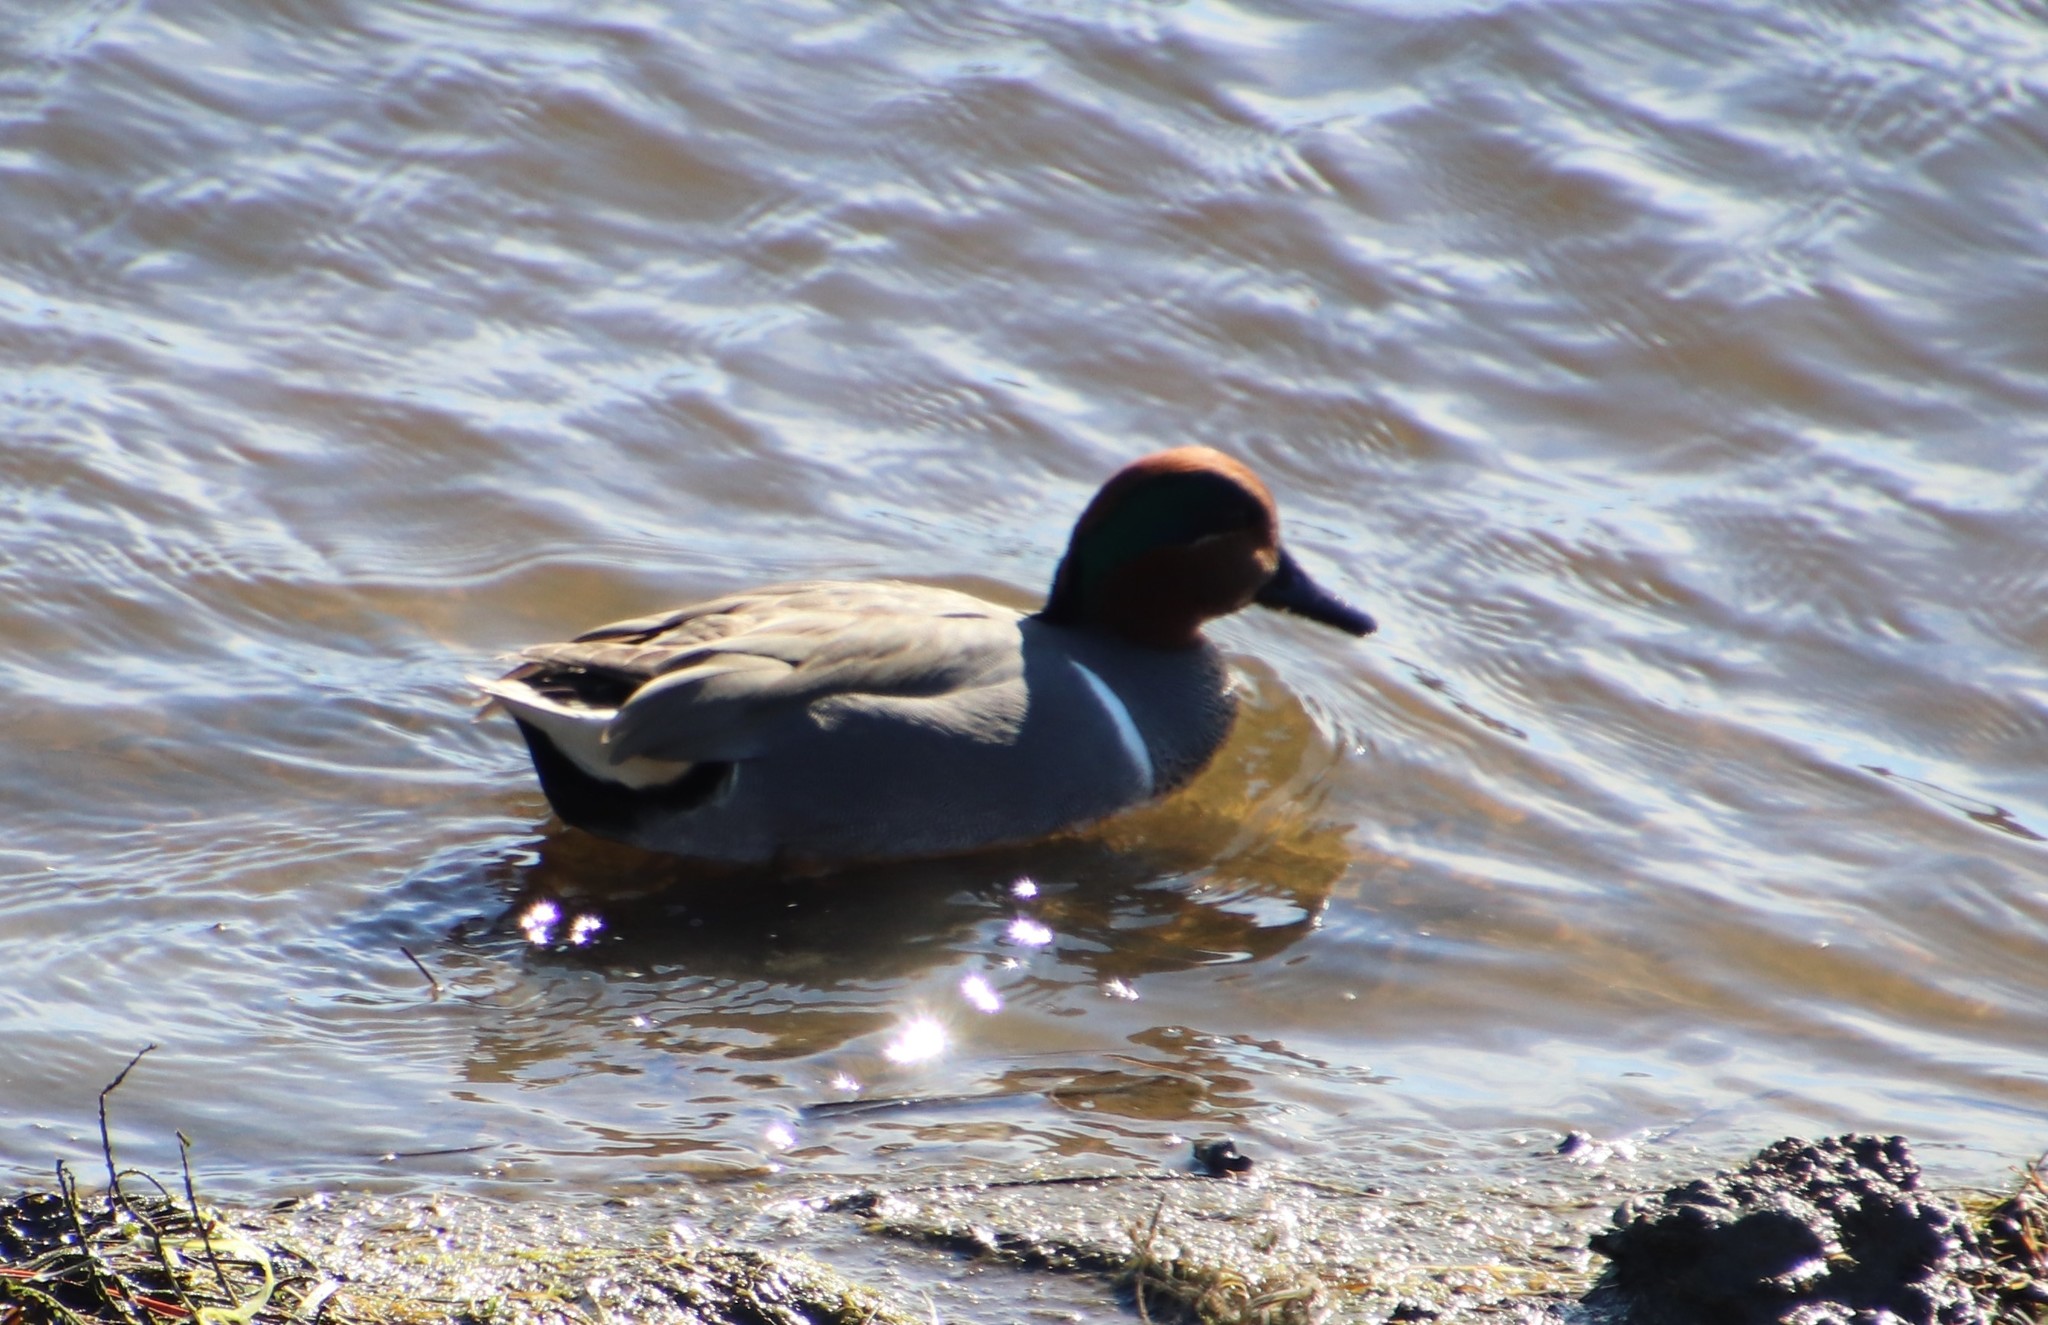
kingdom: Animalia
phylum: Chordata
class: Aves
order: Anseriformes
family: Anatidae
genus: Anas
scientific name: Anas crecca
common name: Eurasian teal
